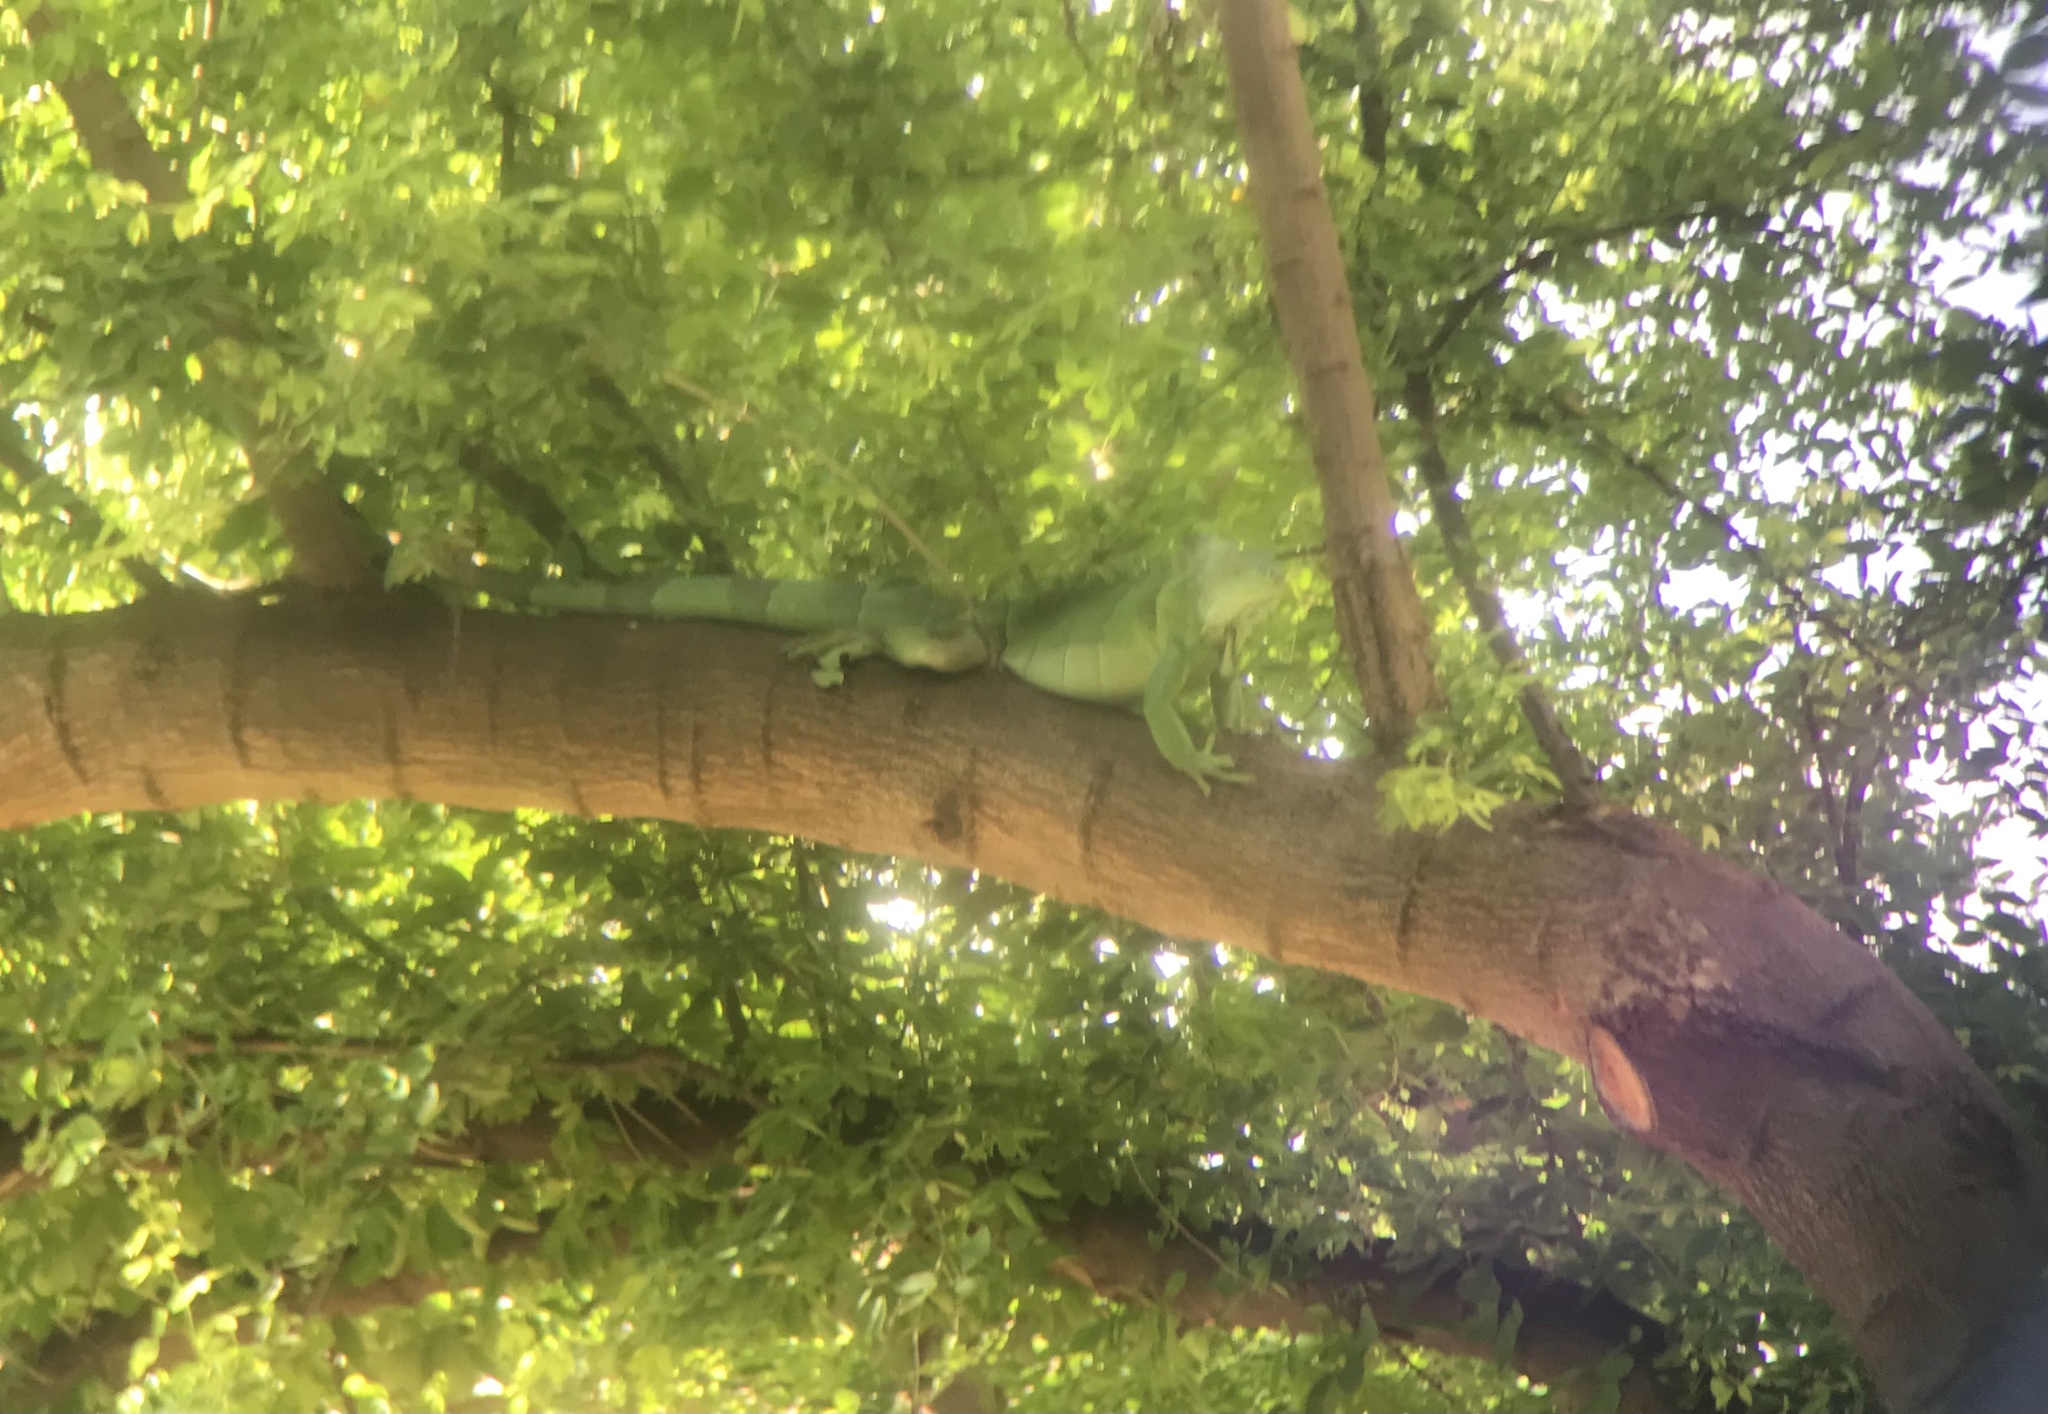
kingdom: Animalia
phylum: Chordata
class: Squamata
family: Iguanidae
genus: Iguana
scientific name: Iguana iguana
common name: Green iguana
